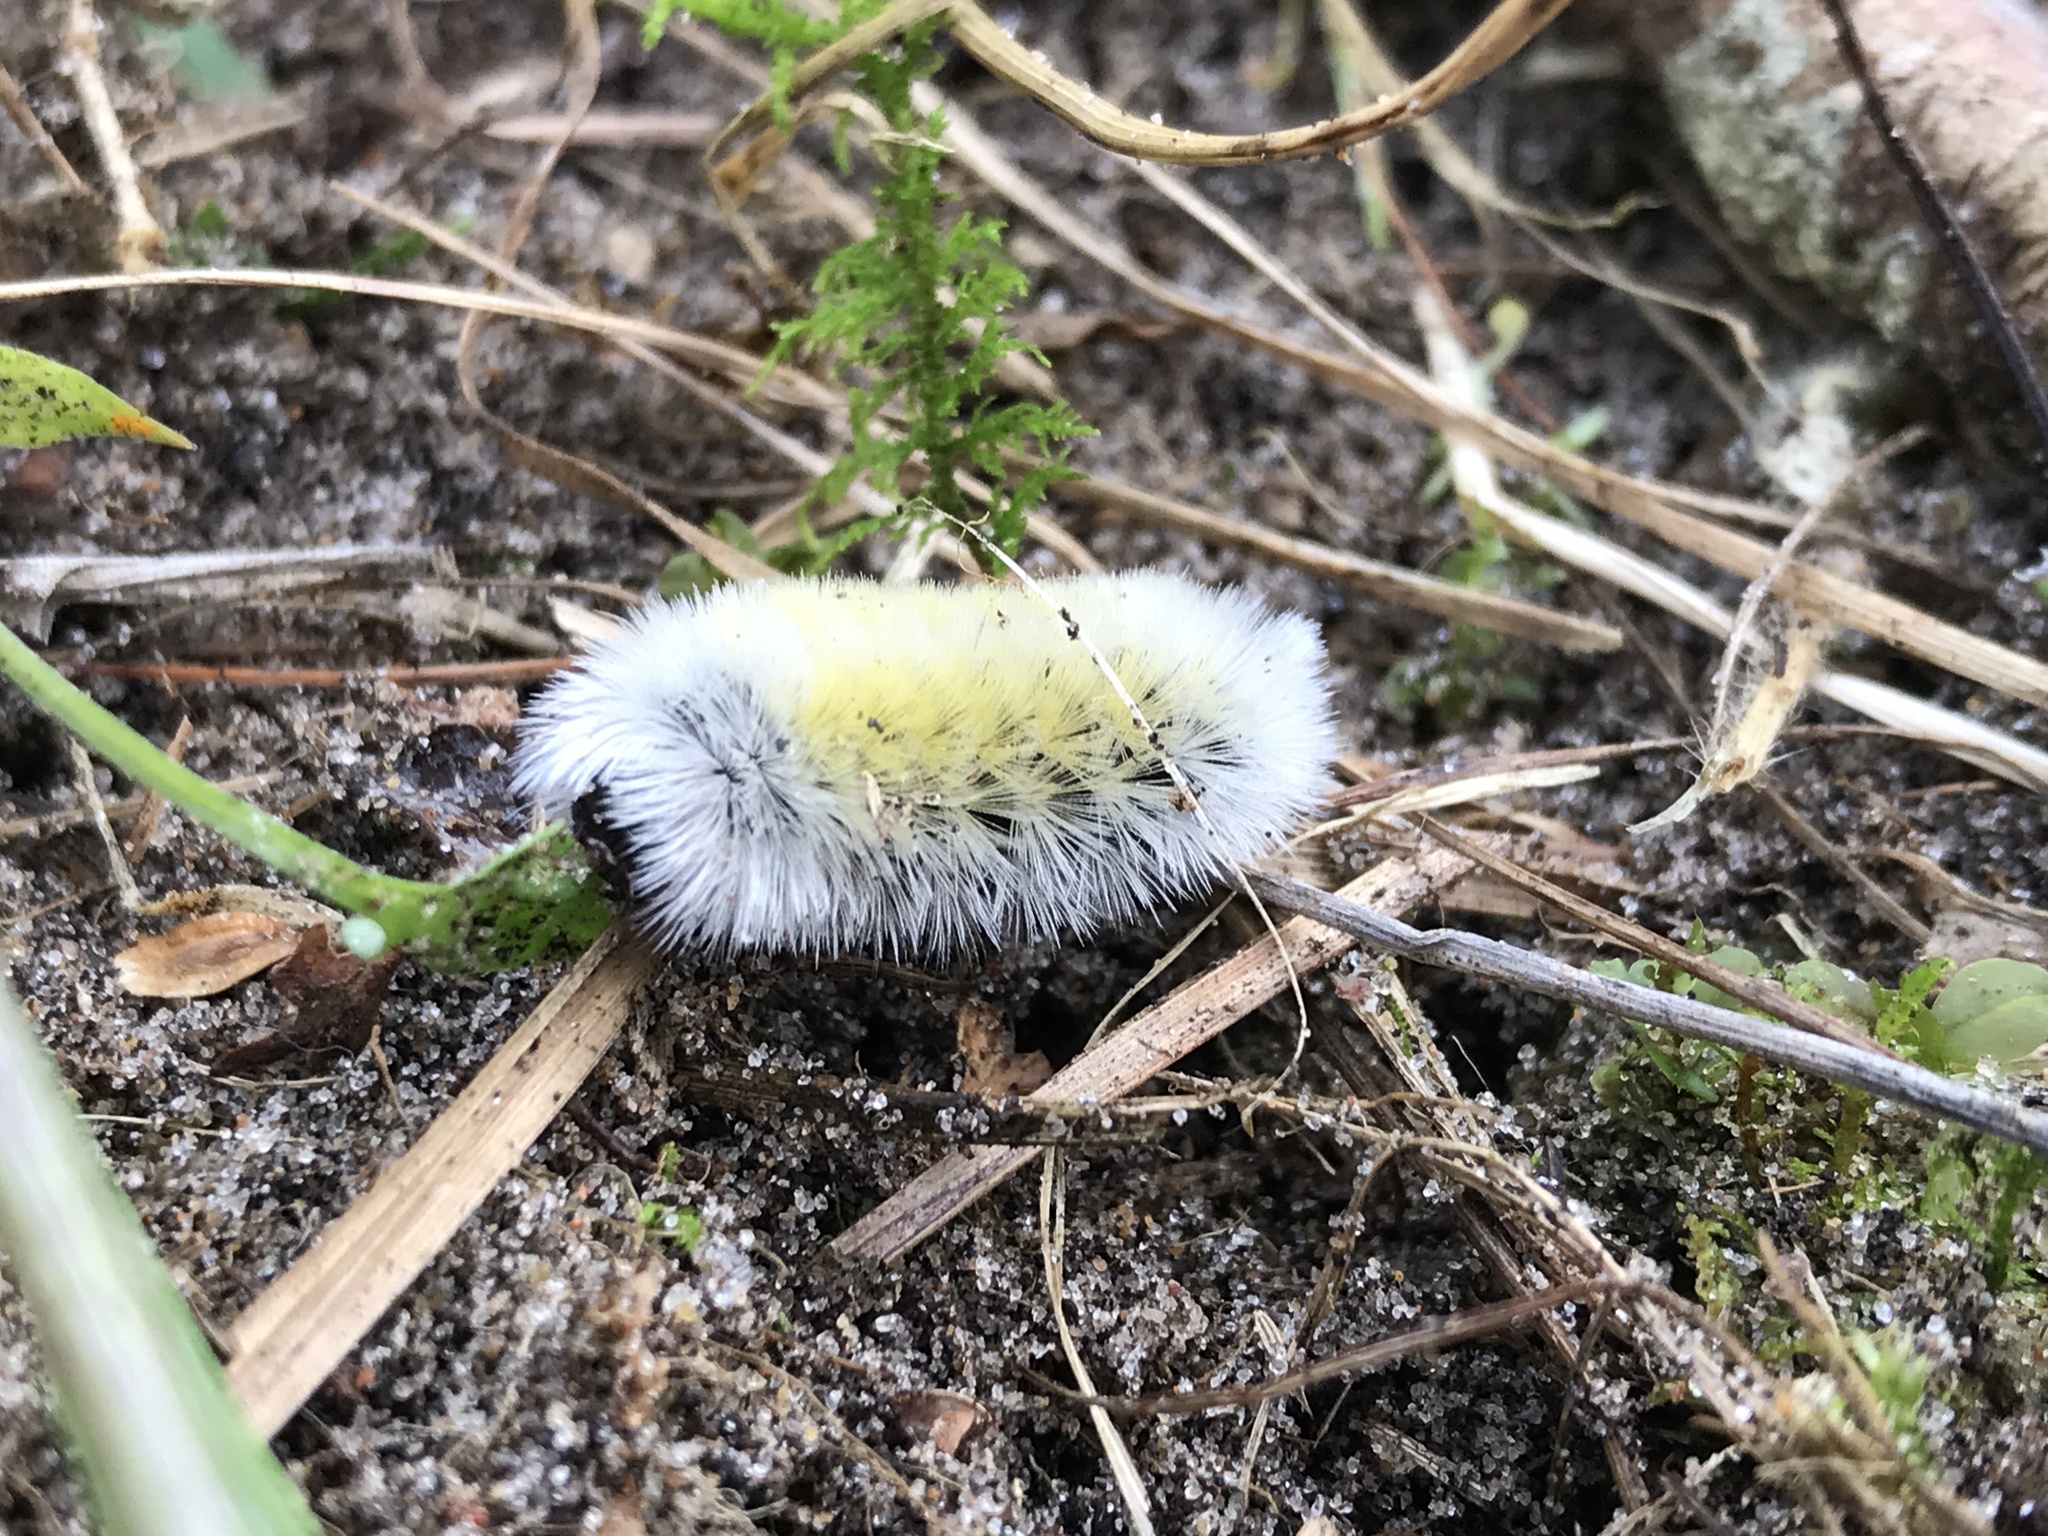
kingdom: Animalia
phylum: Arthropoda
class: Insecta
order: Lepidoptera
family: Erebidae
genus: Ctenucha
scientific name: Ctenucha virginica
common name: Virginia ctenucha moth
